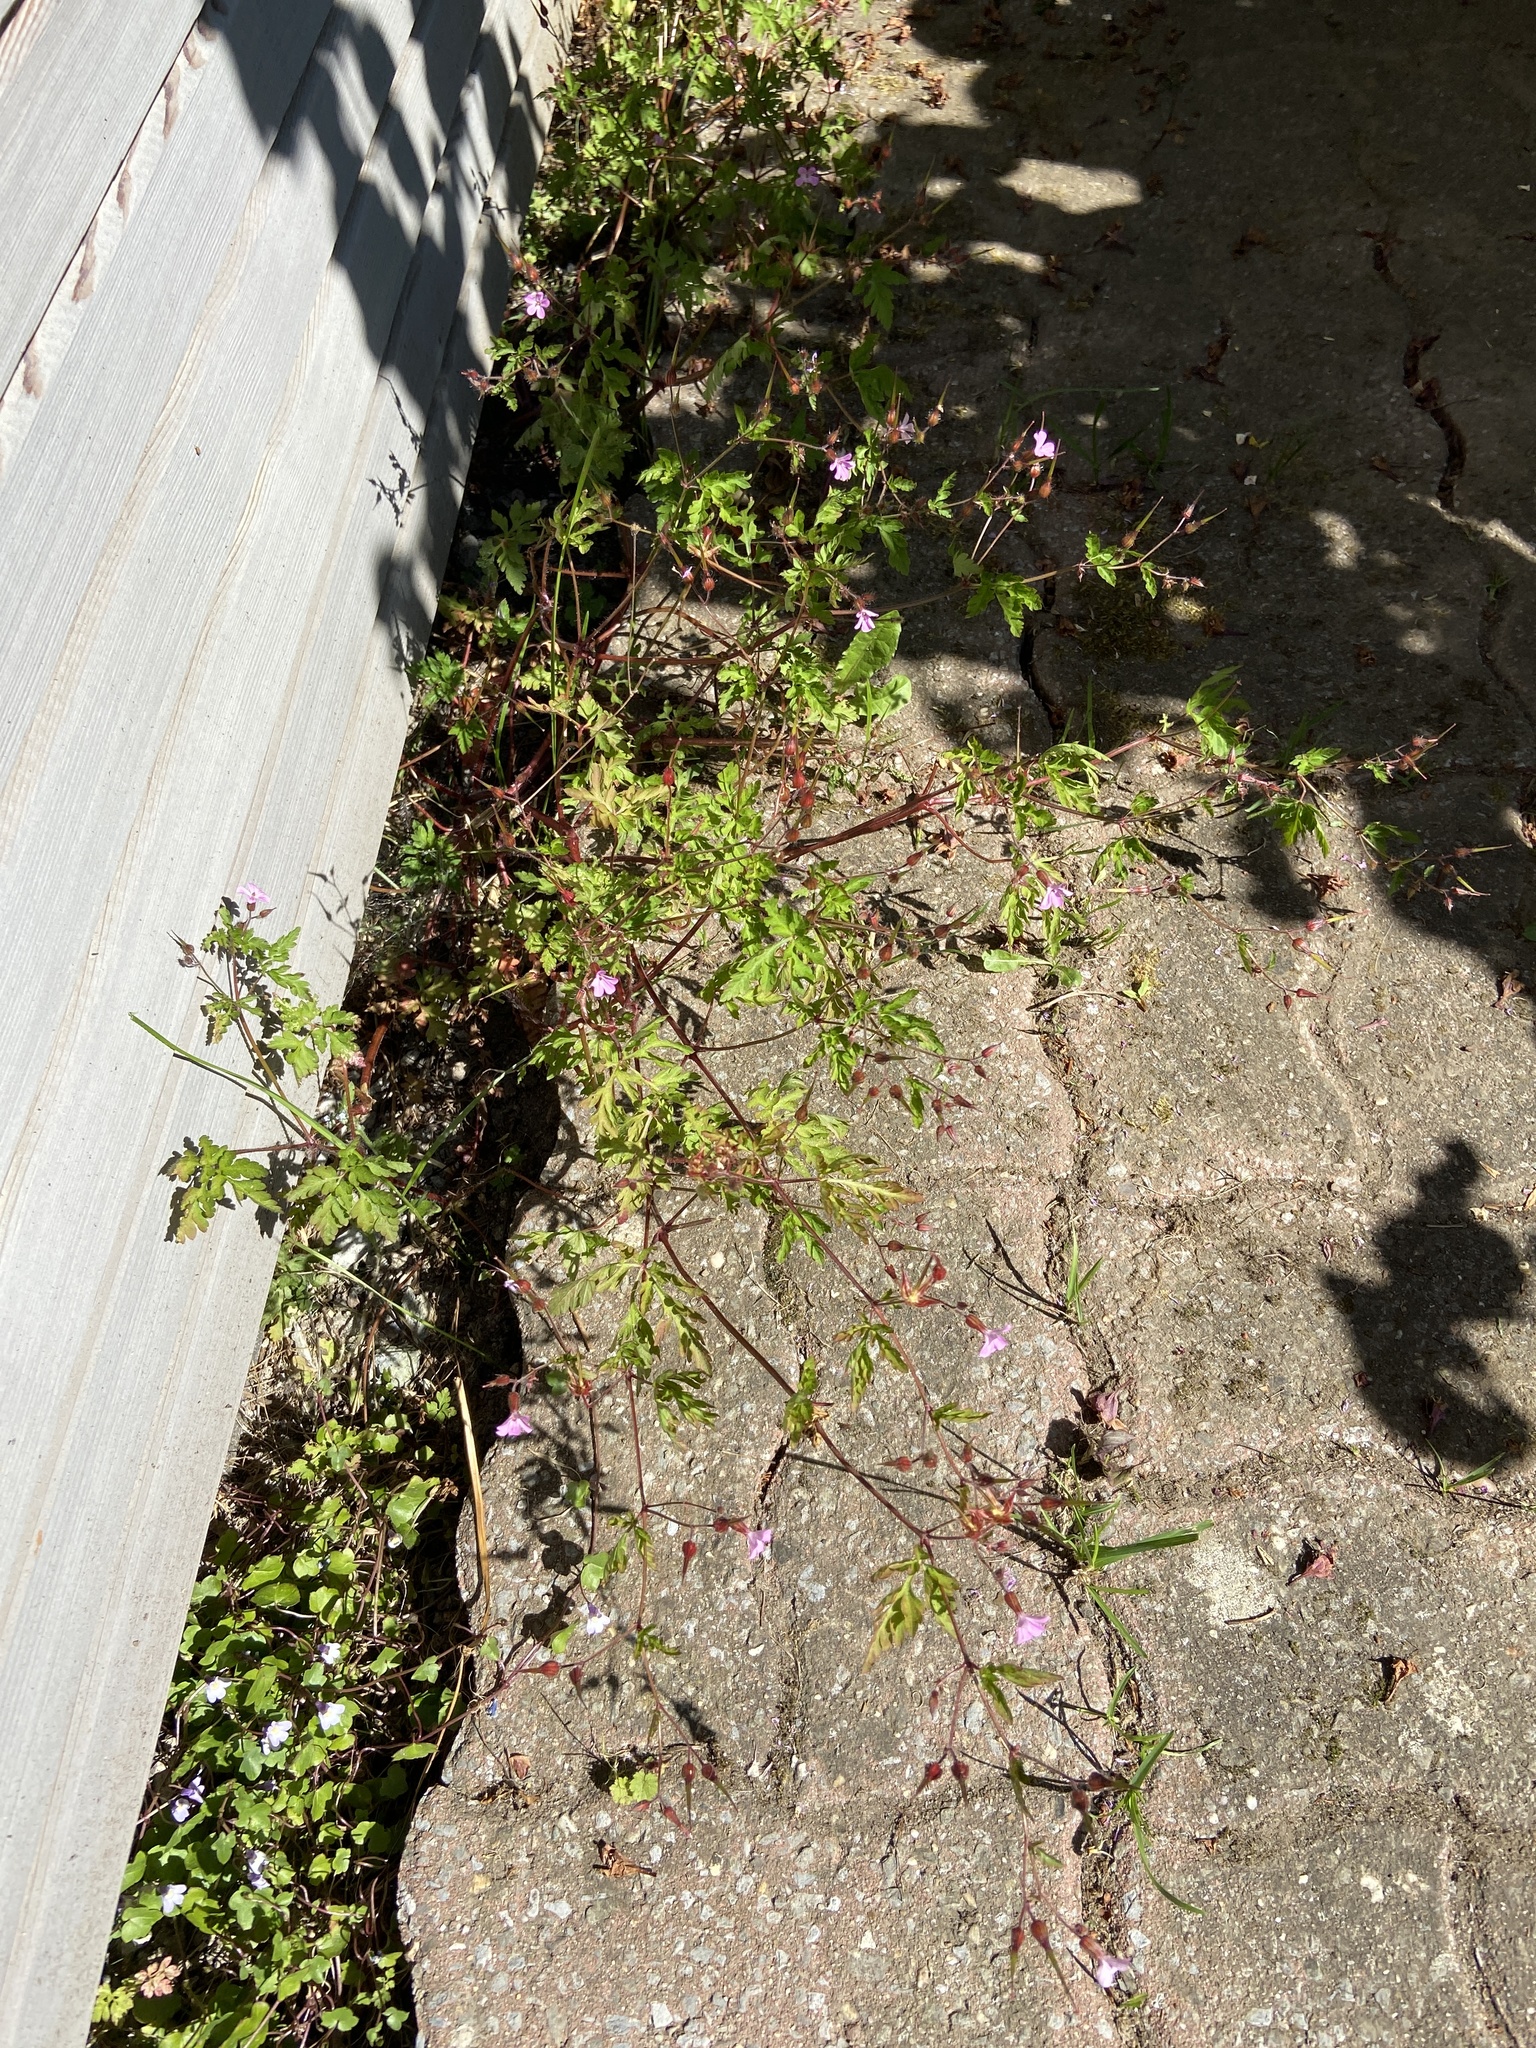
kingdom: Plantae
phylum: Tracheophyta
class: Magnoliopsida
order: Geraniales
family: Geraniaceae
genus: Geranium
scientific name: Geranium robertianum
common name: Herb-robert
